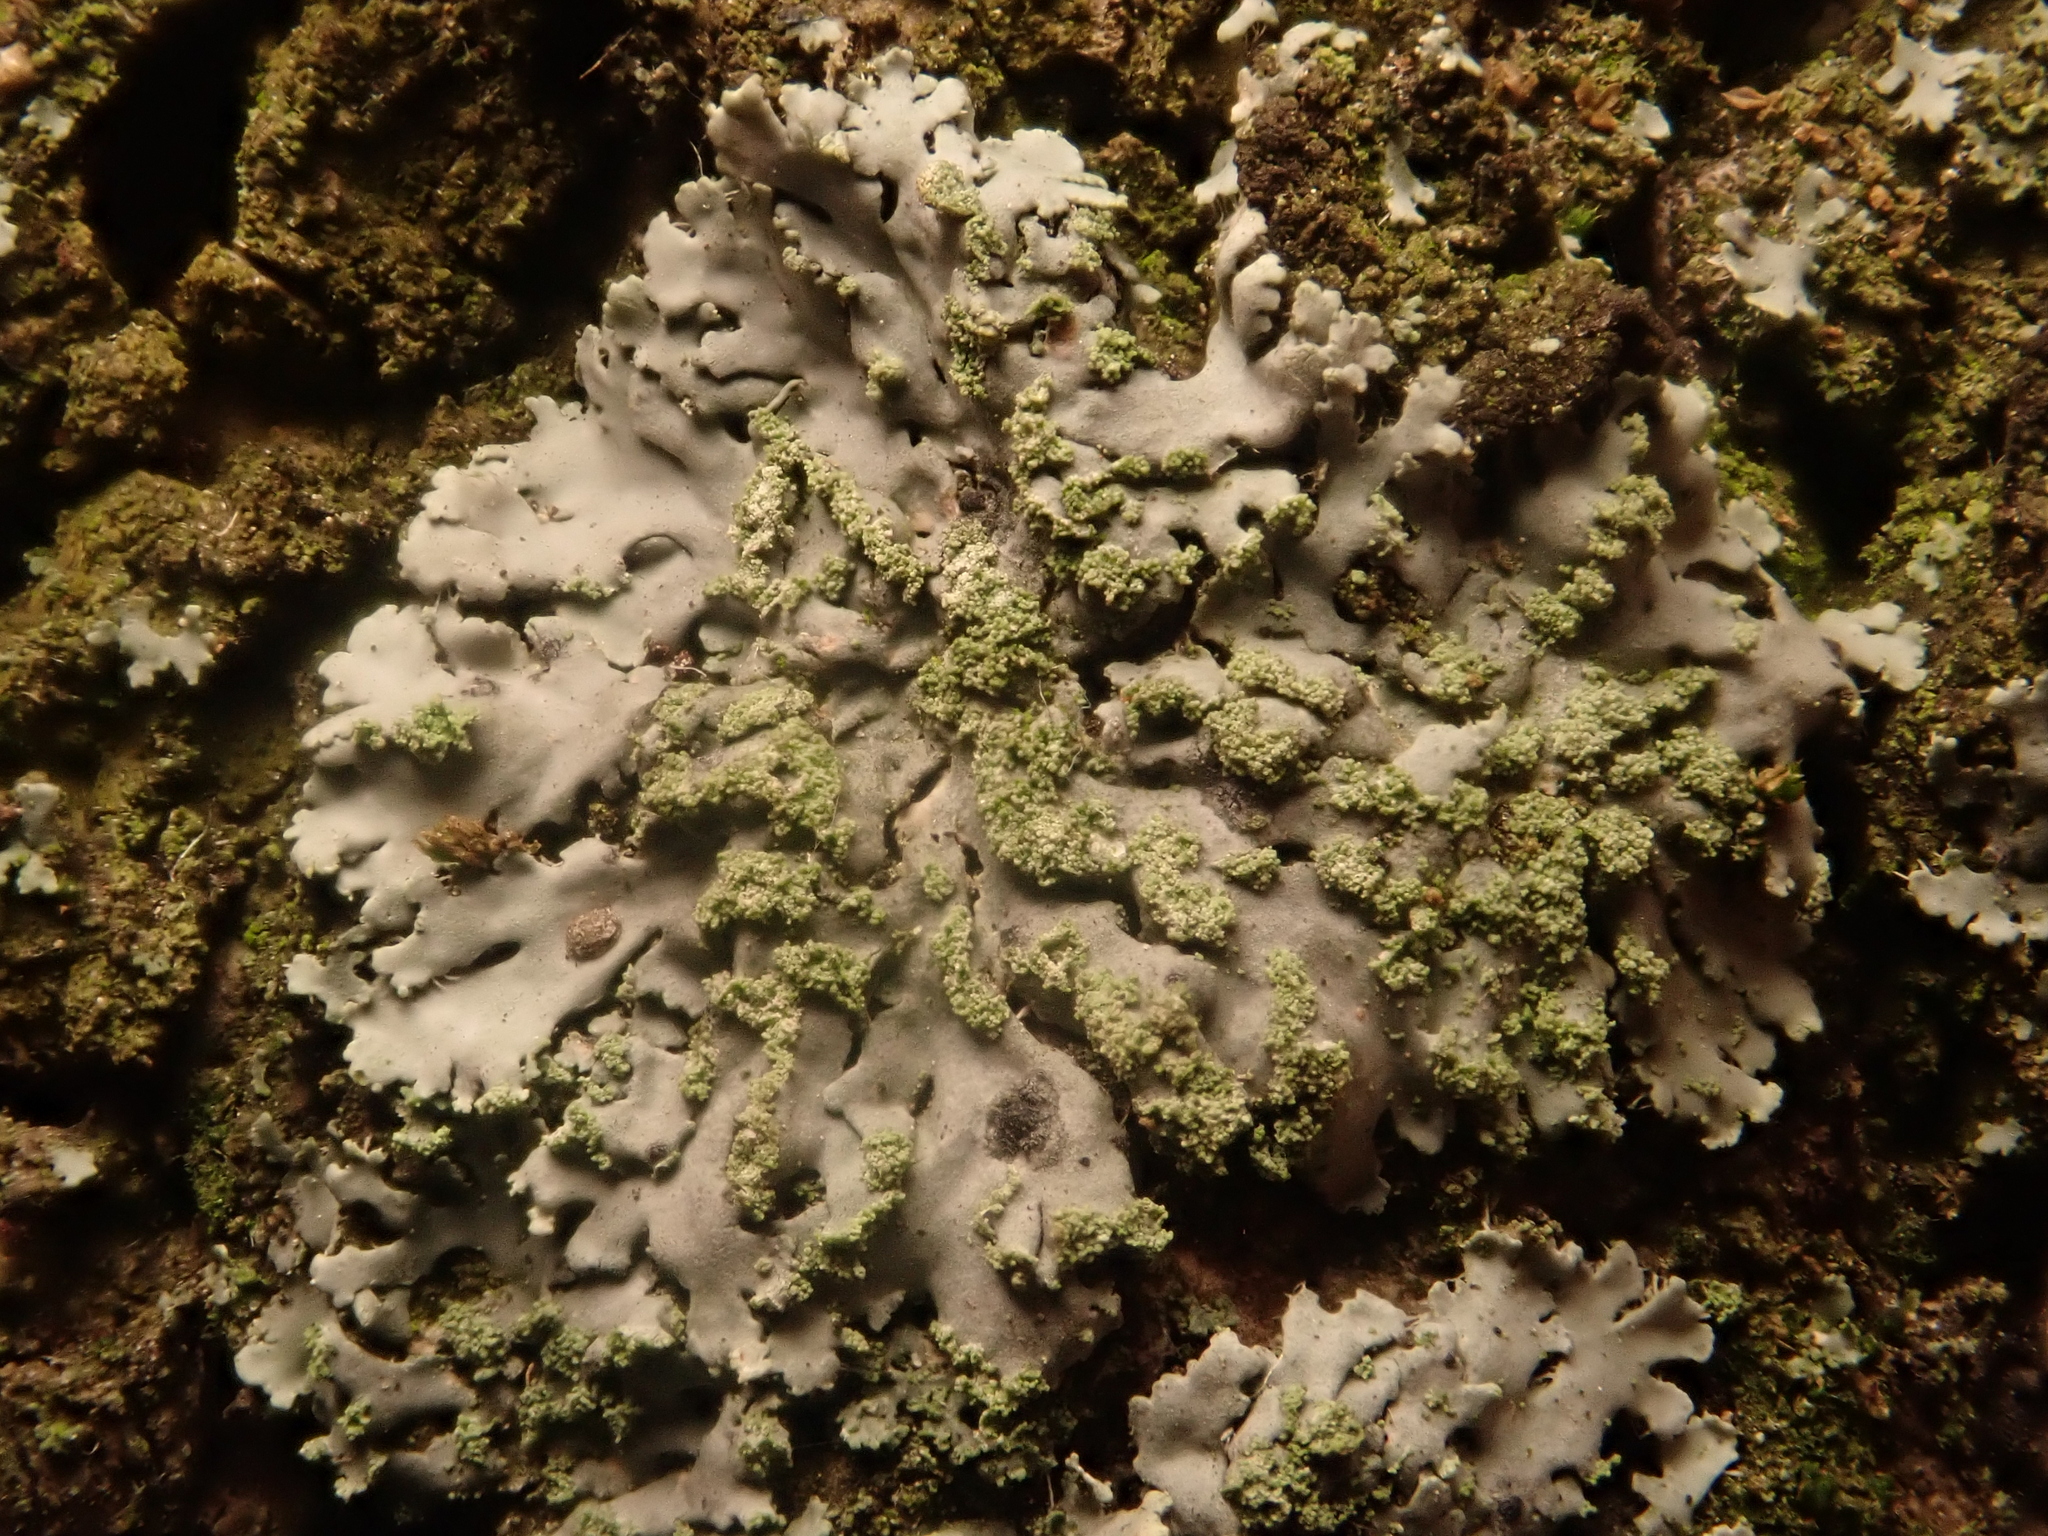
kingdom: Fungi
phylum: Ascomycota
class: Lecanoromycetes
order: Caliciales
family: Physciaceae
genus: Phaeophyscia
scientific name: Phaeophyscia orbicularis
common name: Mealy shadow lichen
